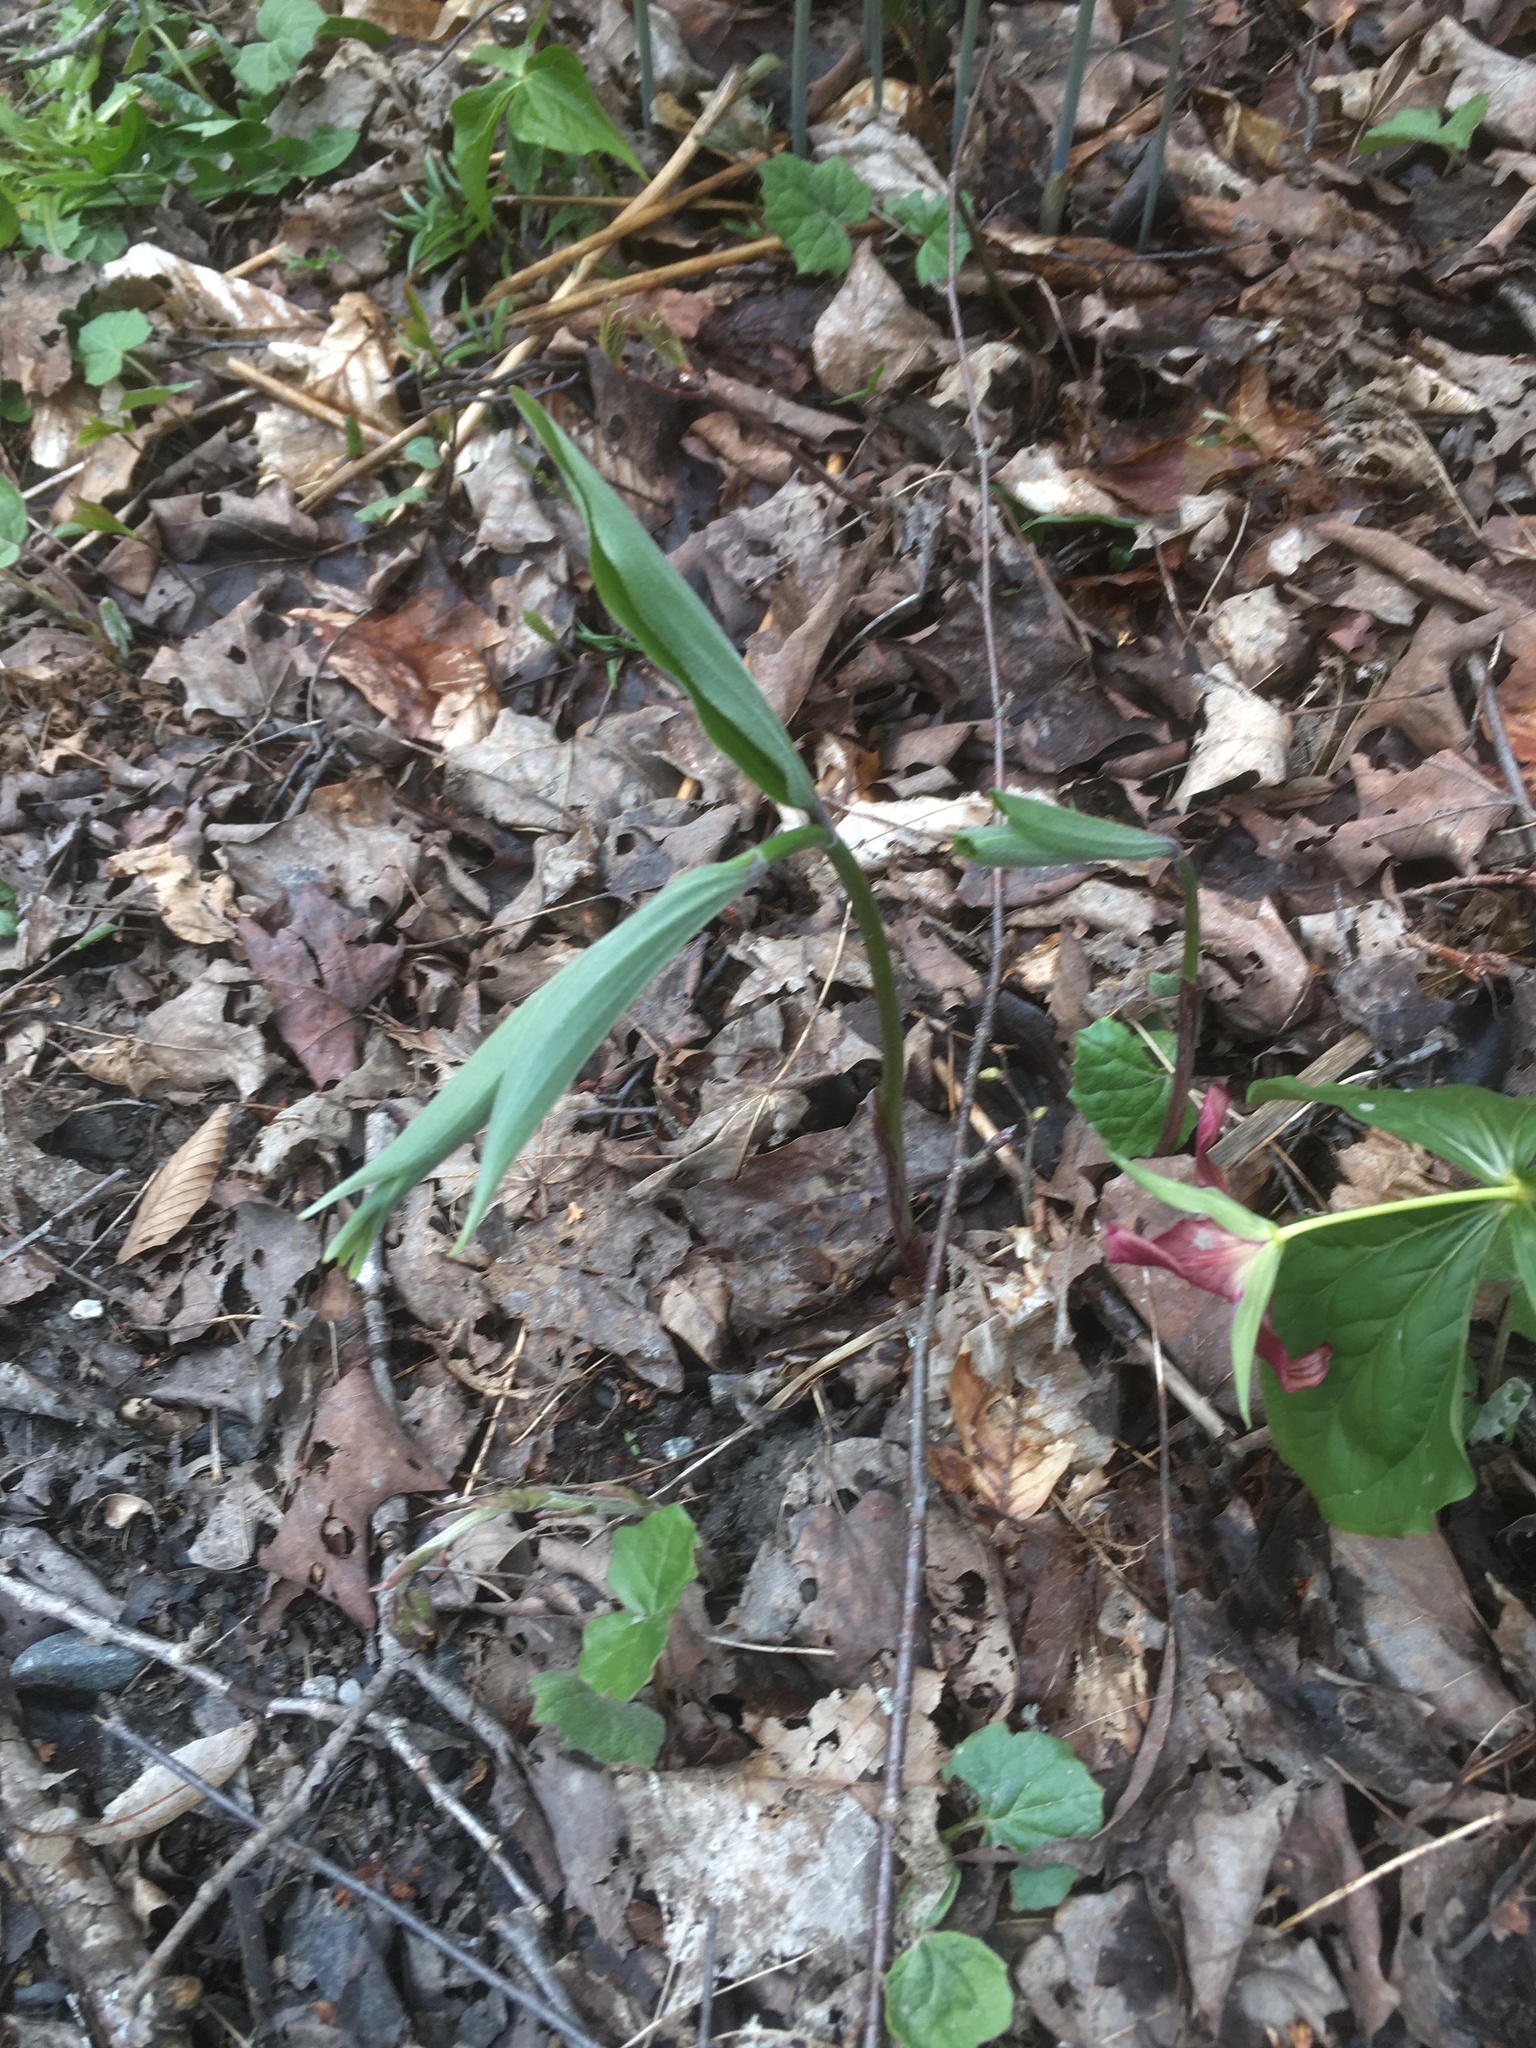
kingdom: Plantae
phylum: Tracheophyta
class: Liliopsida
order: Asparagales
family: Asparagaceae
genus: Maianthemum
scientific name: Maianthemum racemosum
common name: False spikenard
